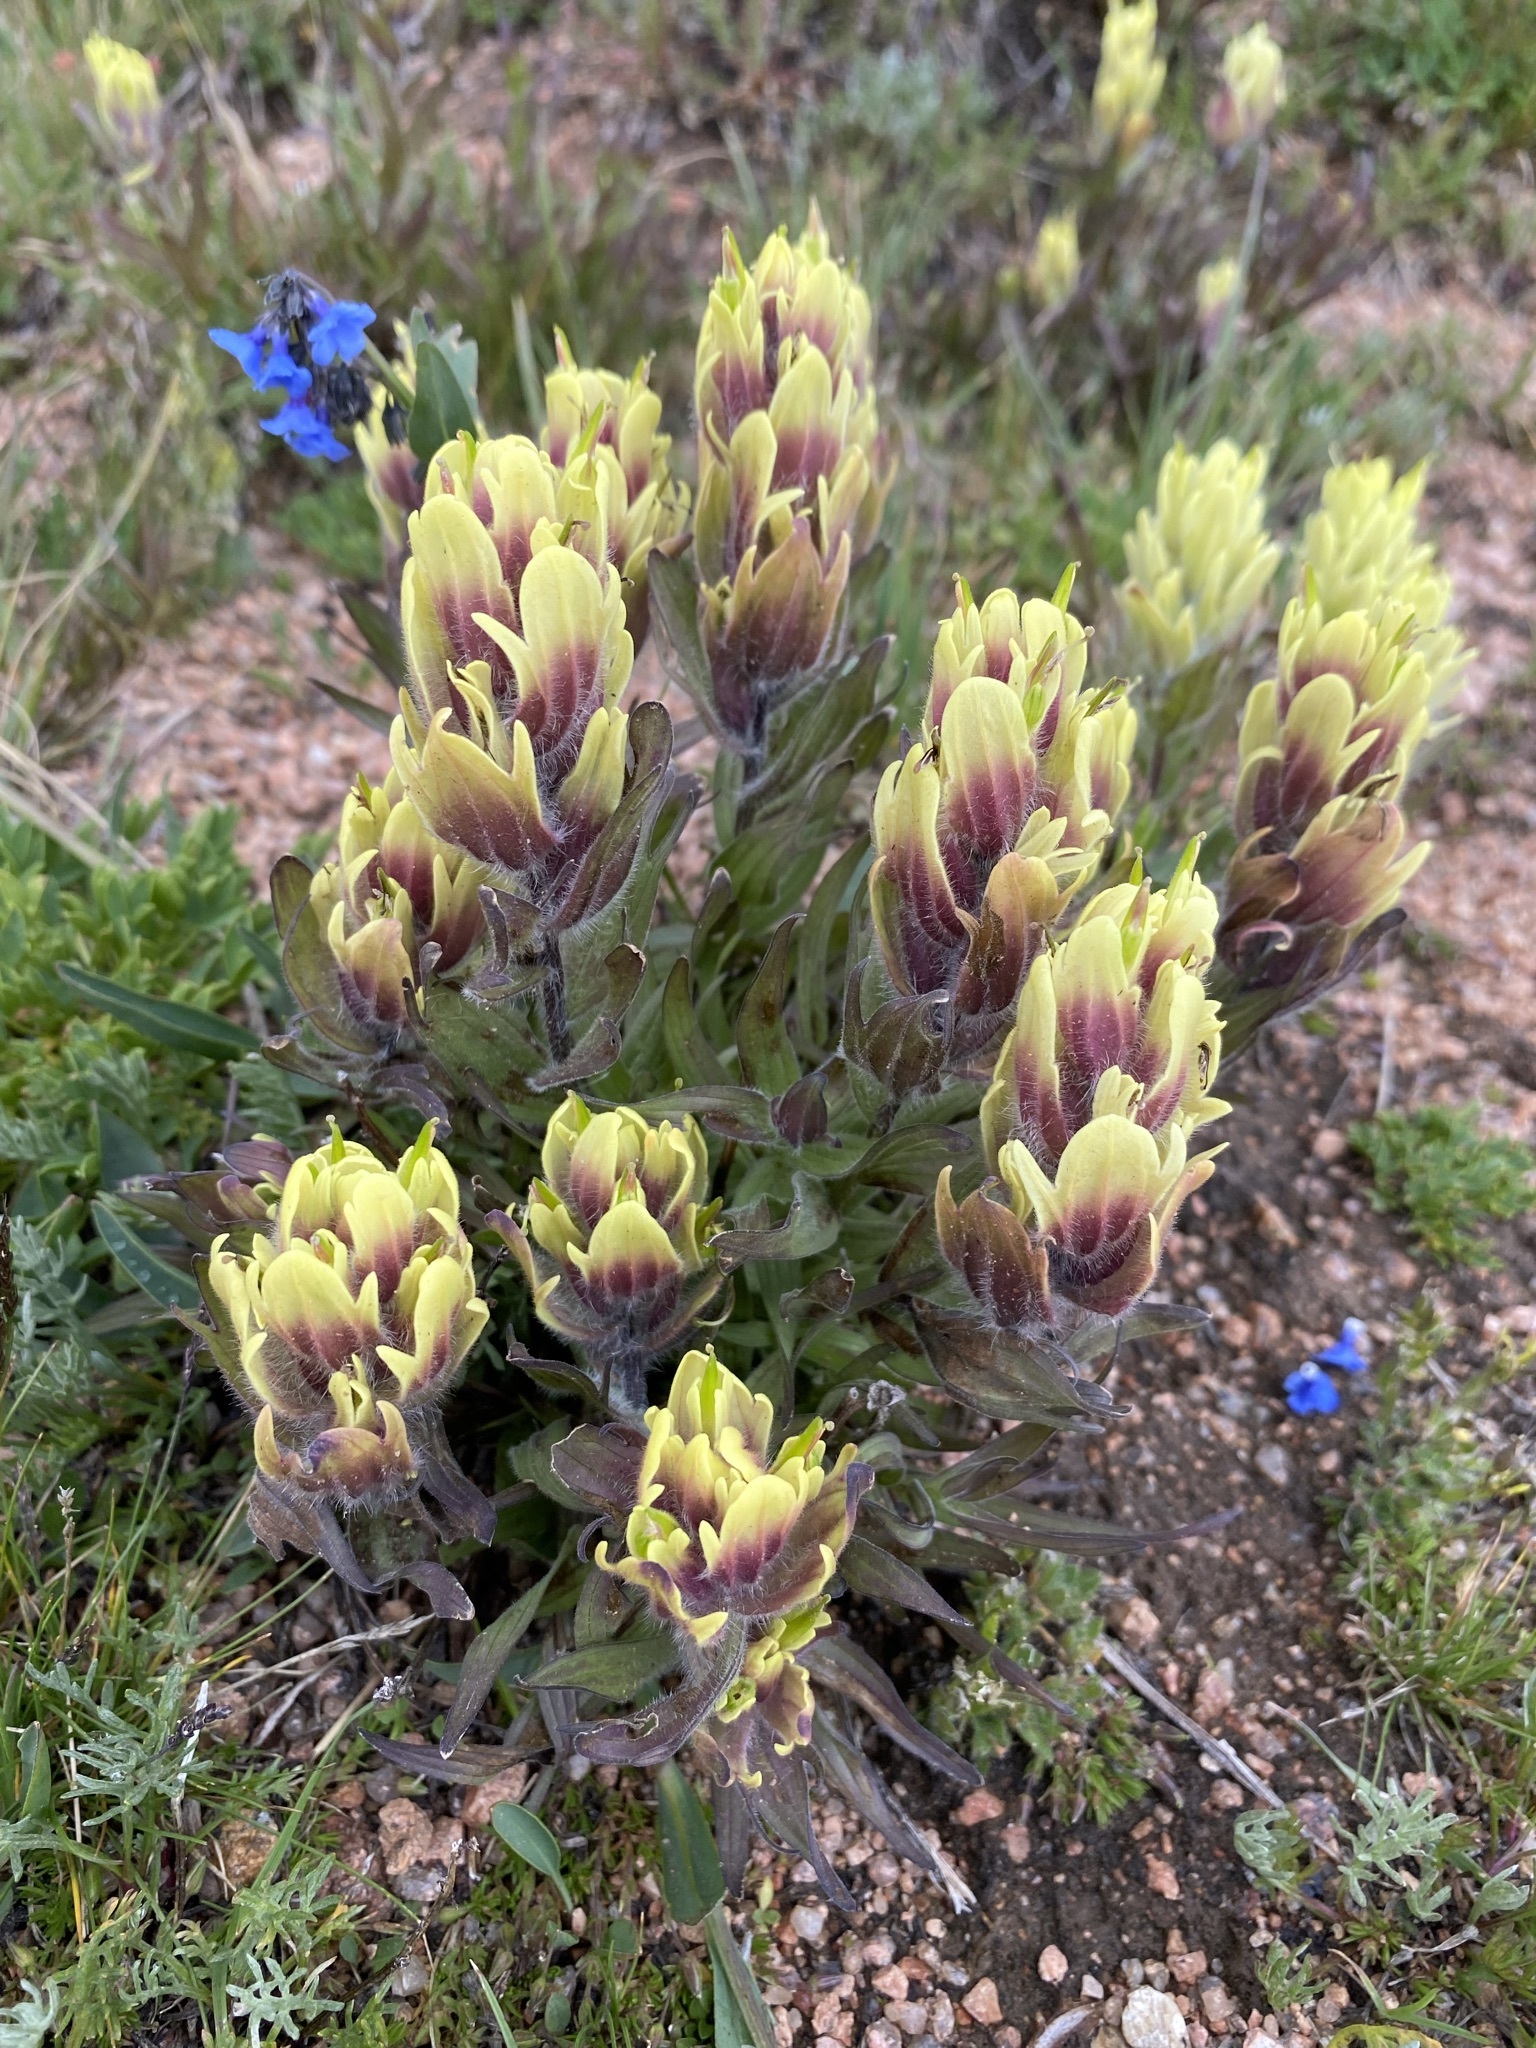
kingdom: Plantae
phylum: Tracheophyta
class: Magnoliopsida
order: Lamiales
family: Orobanchaceae
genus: Castilleja
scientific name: Castilleja occidentalis
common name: Western paintbrush
